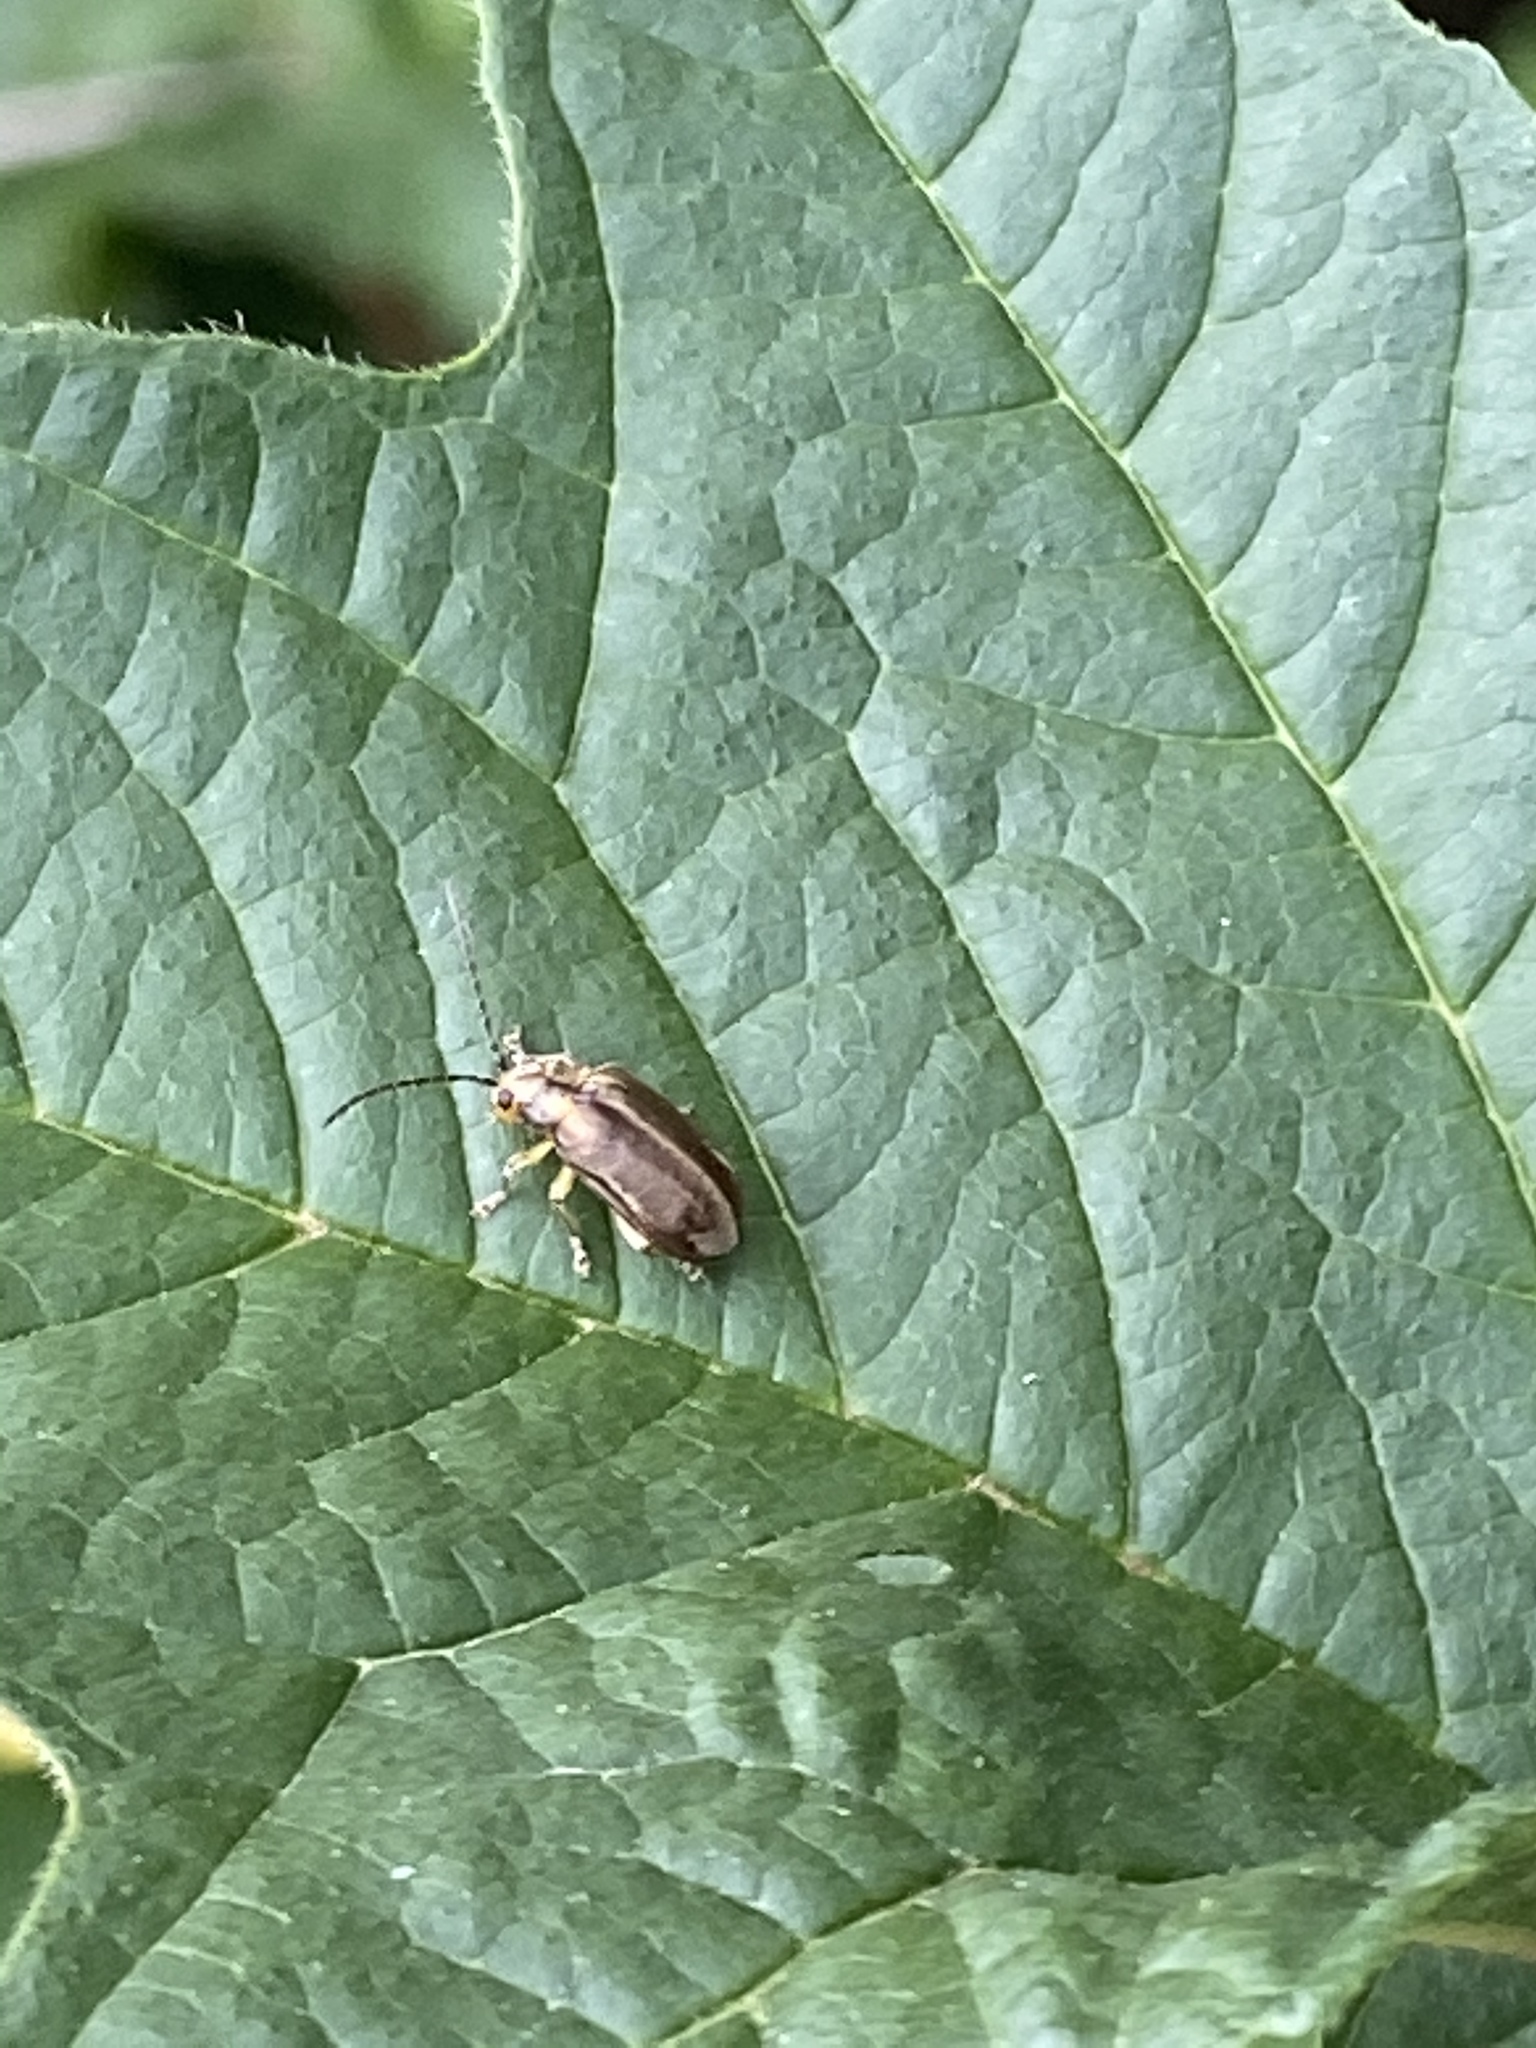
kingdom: Animalia
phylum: Arthropoda
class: Insecta
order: Coleoptera
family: Chrysomelidae
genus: Pyrrhalta
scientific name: Pyrrhalta viburni
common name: Guelder-rose leaf beetle
